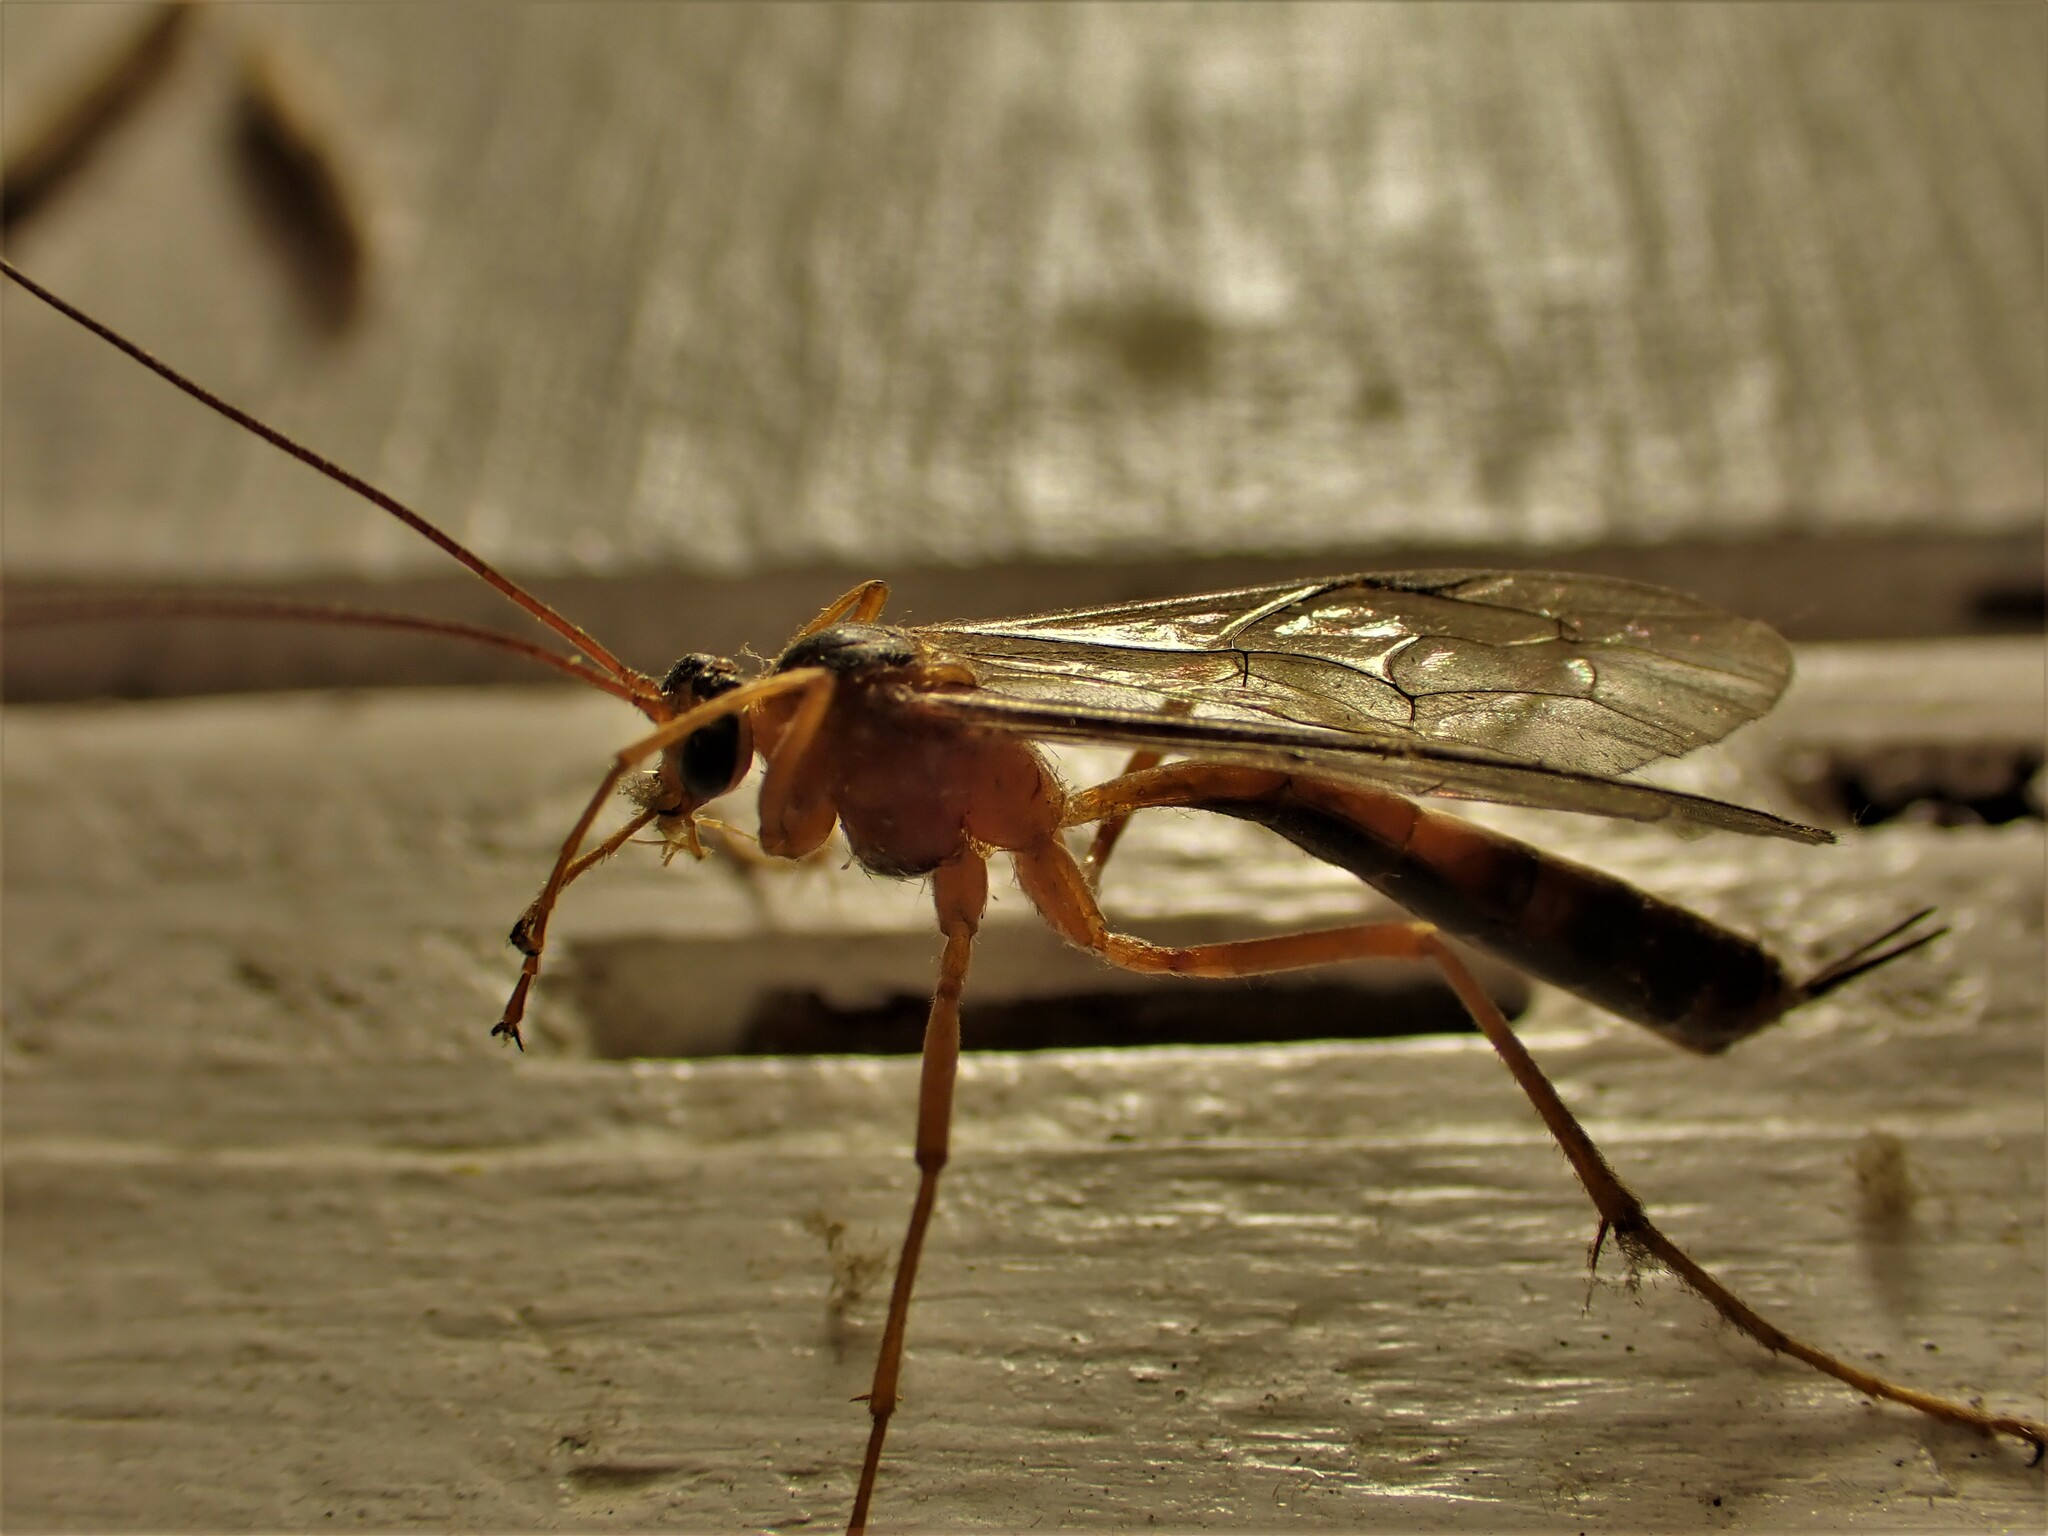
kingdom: Animalia
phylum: Arthropoda
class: Insecta
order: Hymenoptera
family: Ichneumonidae
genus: Netelia
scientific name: Netelia ephippiata
